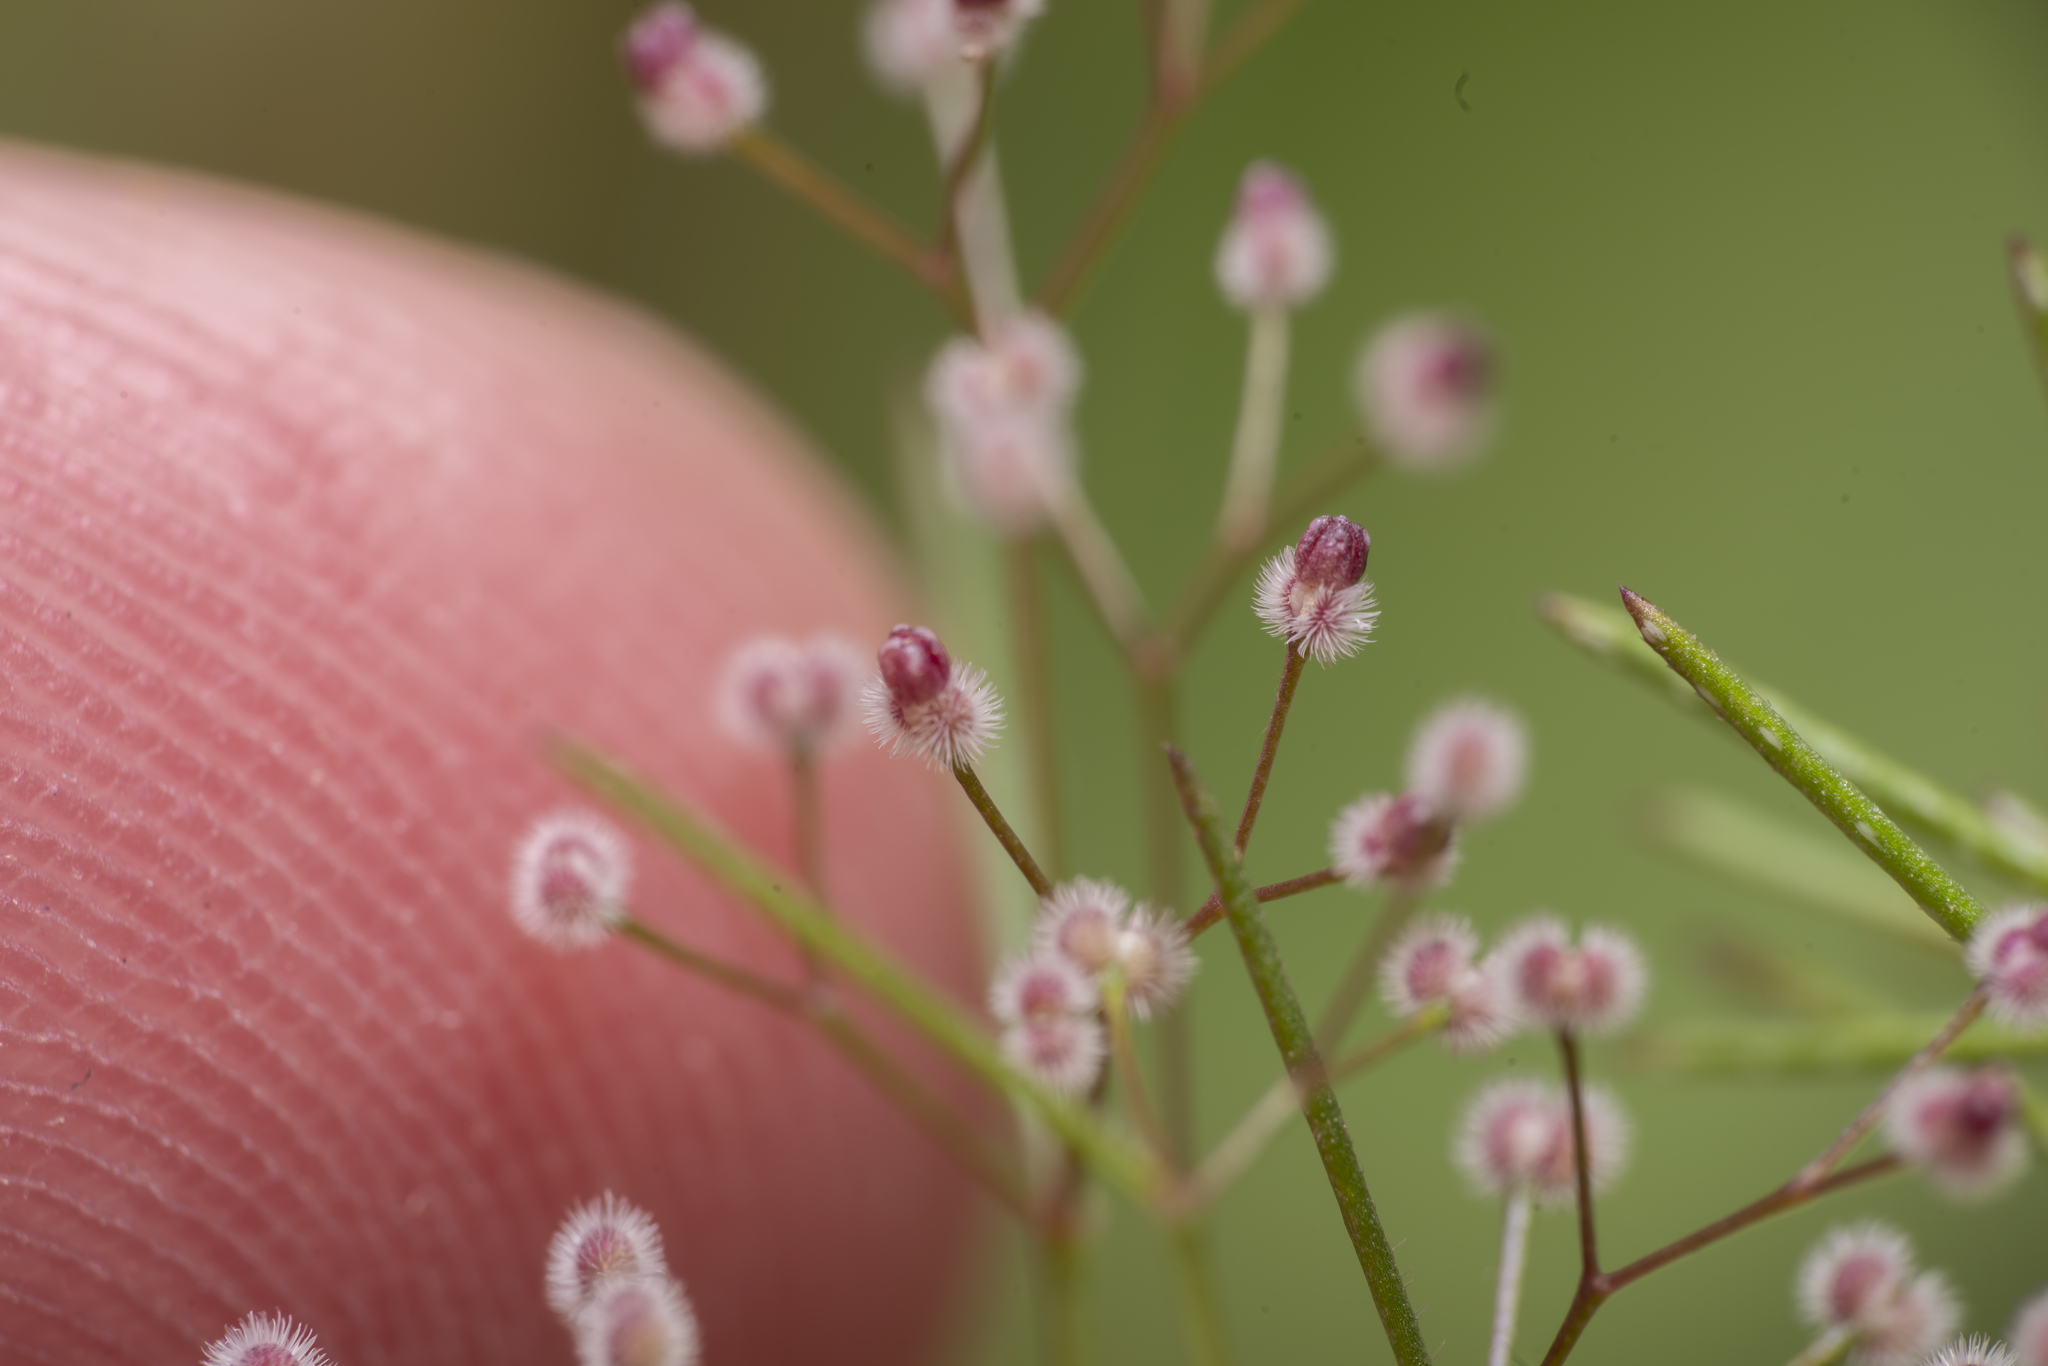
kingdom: Plantae
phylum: Tracheophyta
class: Magnoliopsida
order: Gentianales
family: Rubiaceae
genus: Galium
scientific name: Galium setaceum
